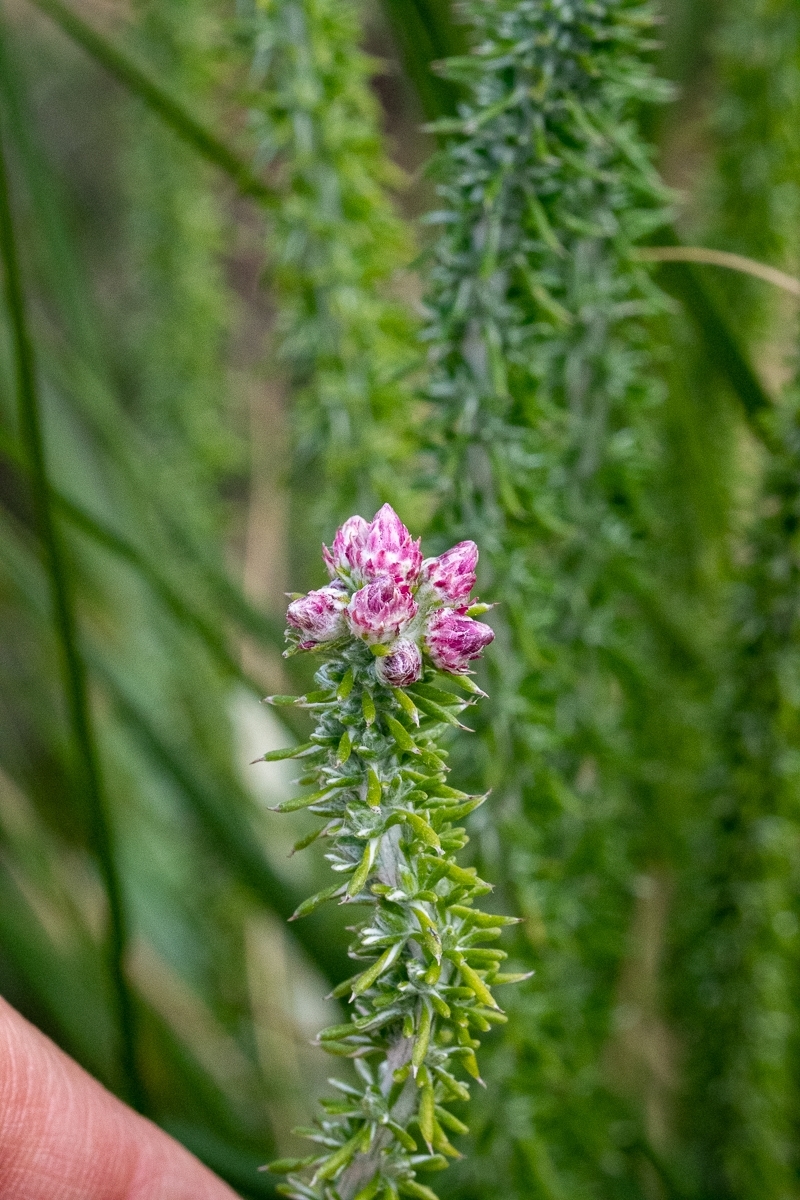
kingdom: Plantae
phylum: Tracheophyta
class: Magnoliopsida
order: Asterales
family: Asteraceae
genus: Lachnospermum
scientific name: Lachnospermum umbellatum
